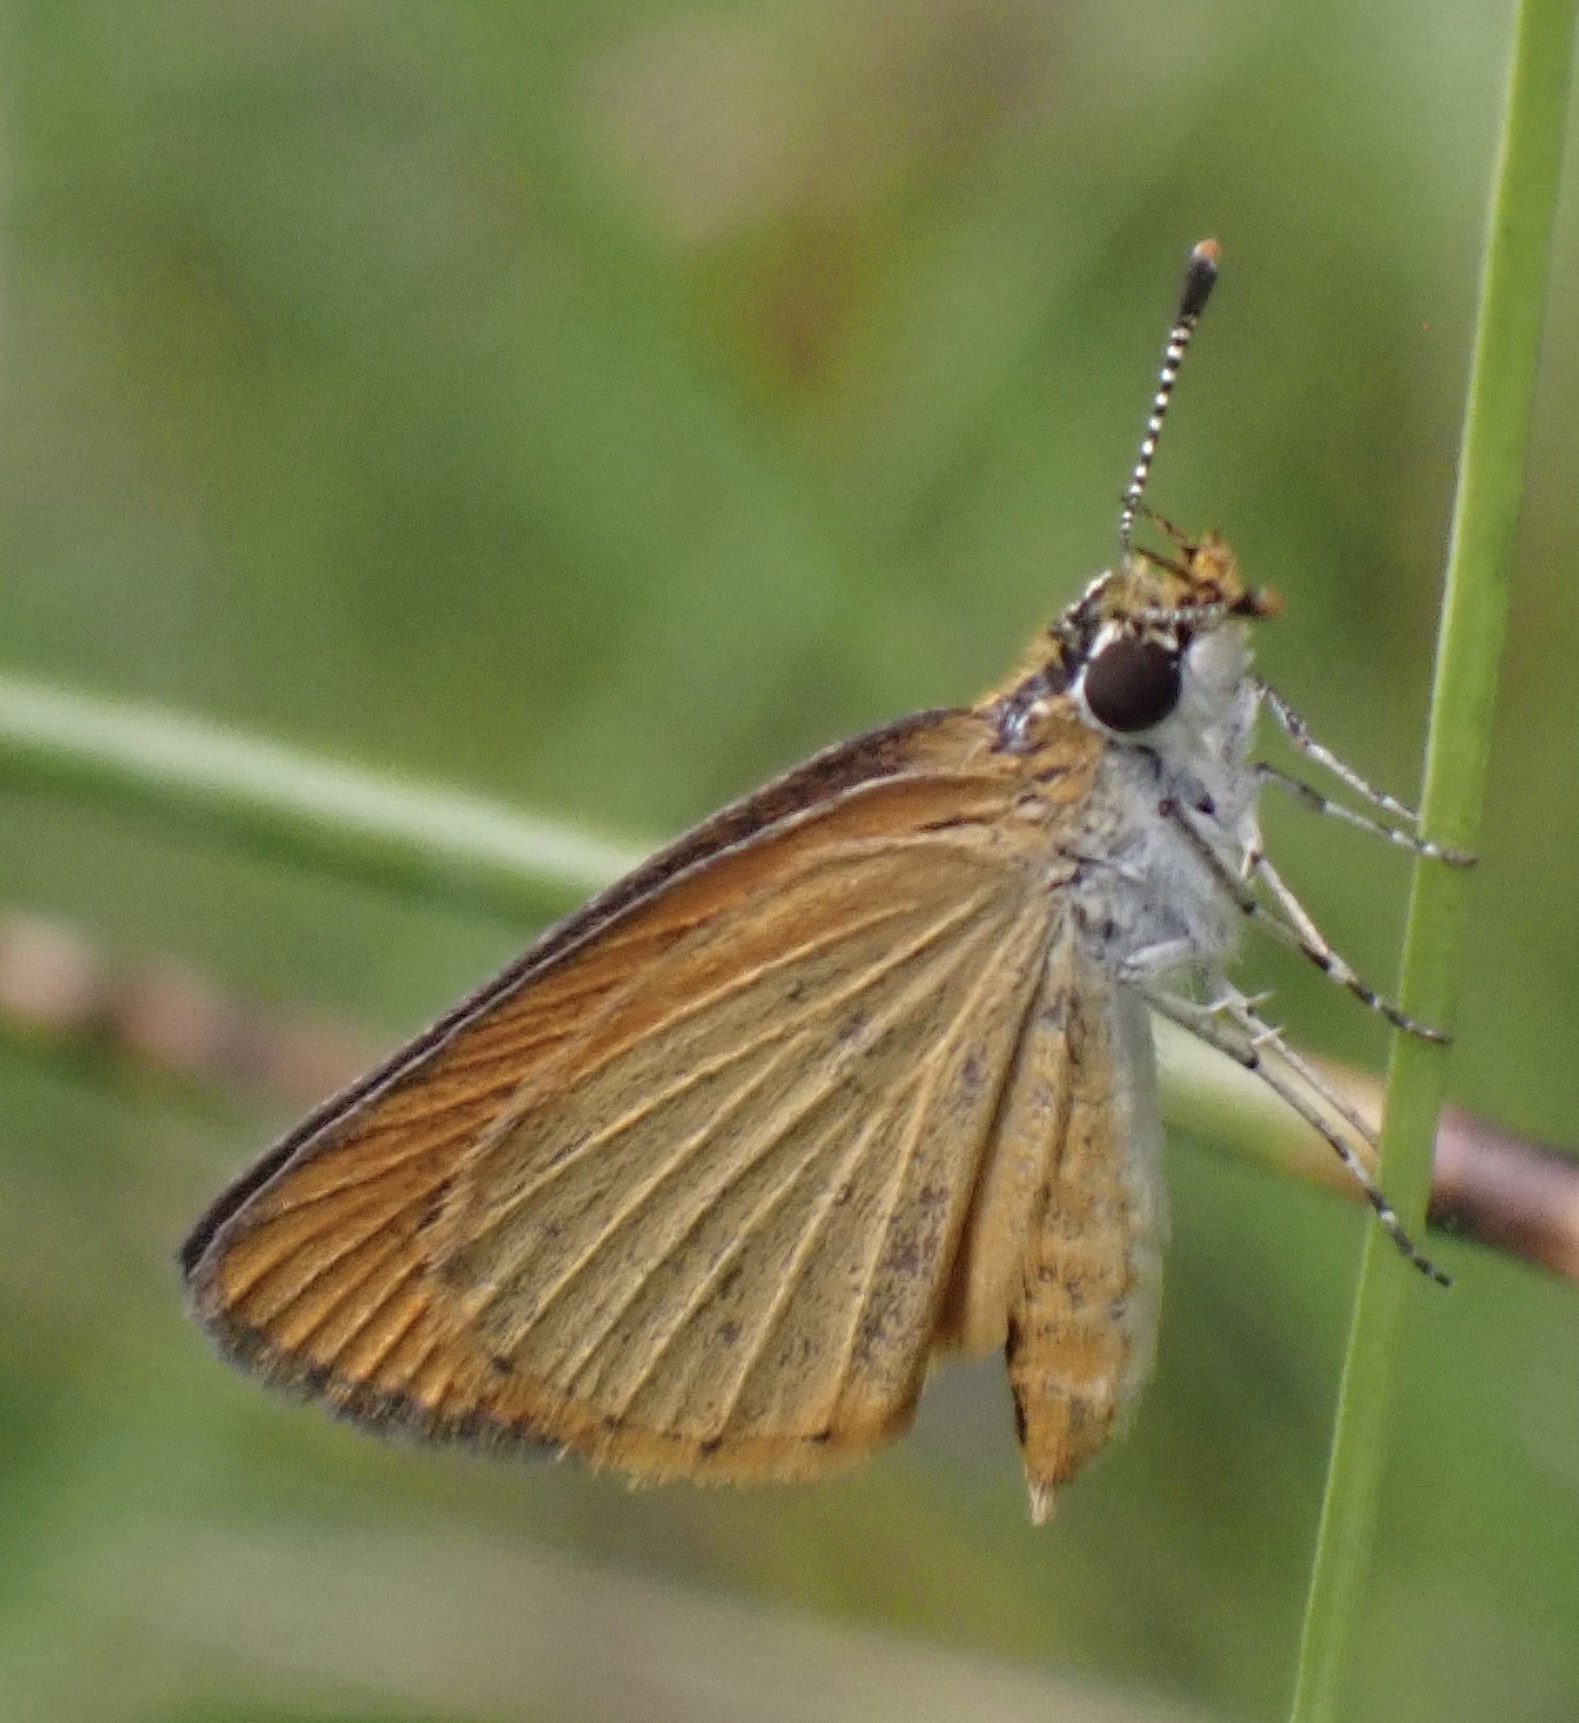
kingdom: Animalia
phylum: Arthropoda
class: Insecta
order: Lepidoptera
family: Hesperiidae
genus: Ancyloxypha
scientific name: Ancyloxypha numitor
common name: Least skipper
